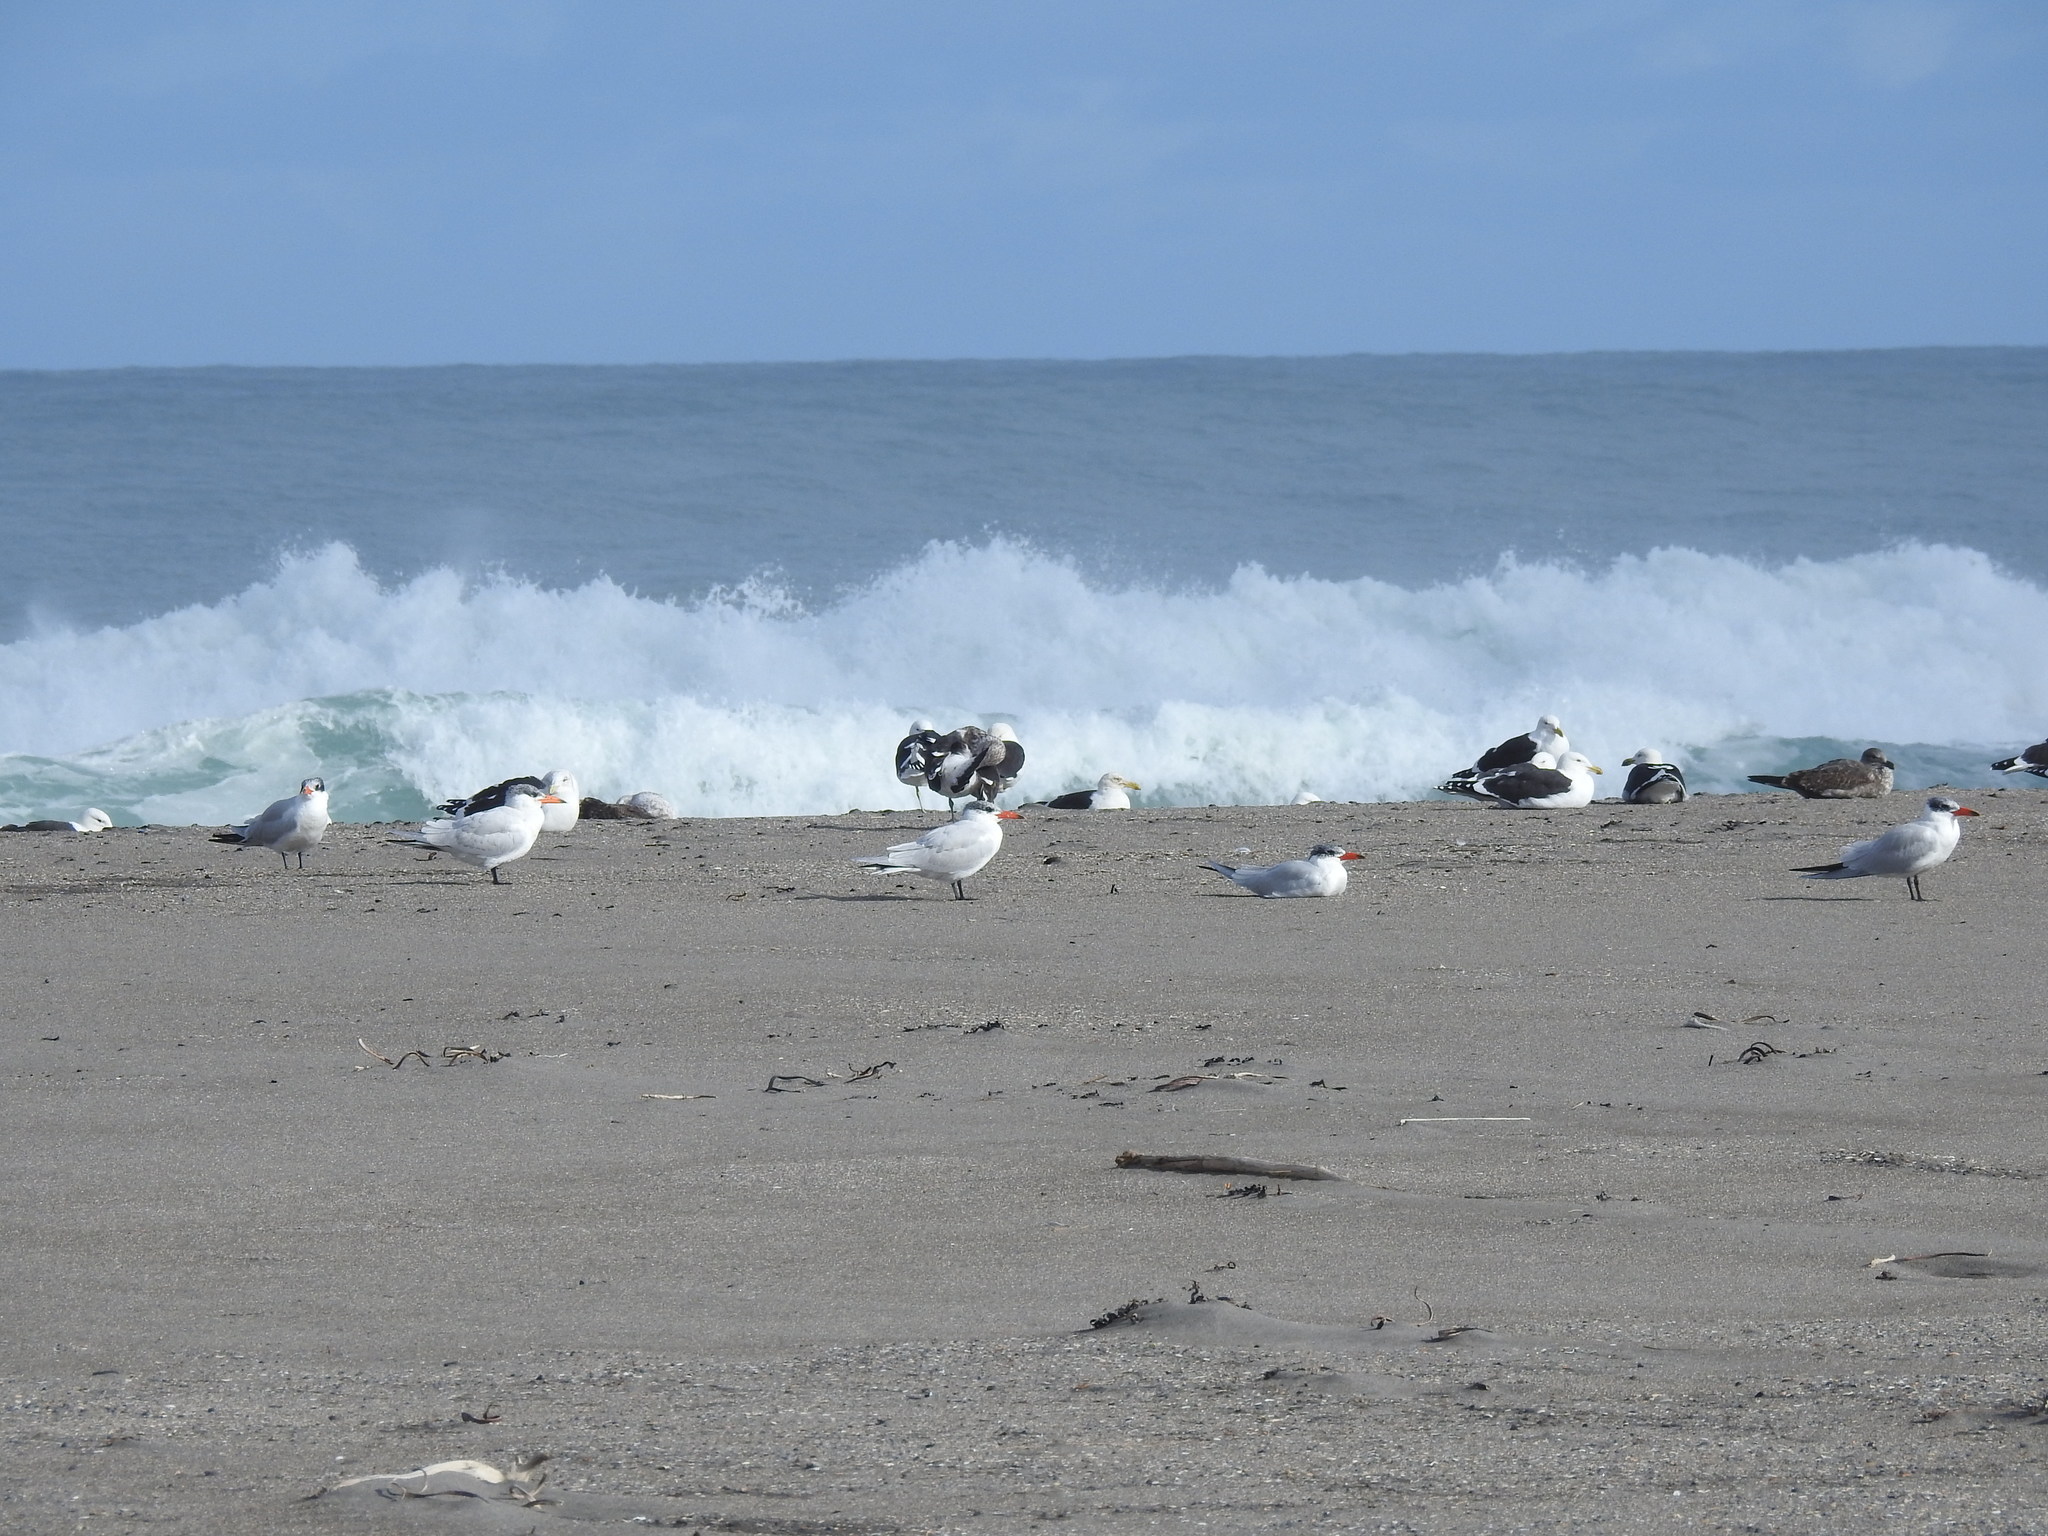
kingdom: Animalia
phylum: Chordata
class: Aves
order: Charadriiformes
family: Laridae
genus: Hydroprogne
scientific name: Hydroprogne caspia
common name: Caspian tern
